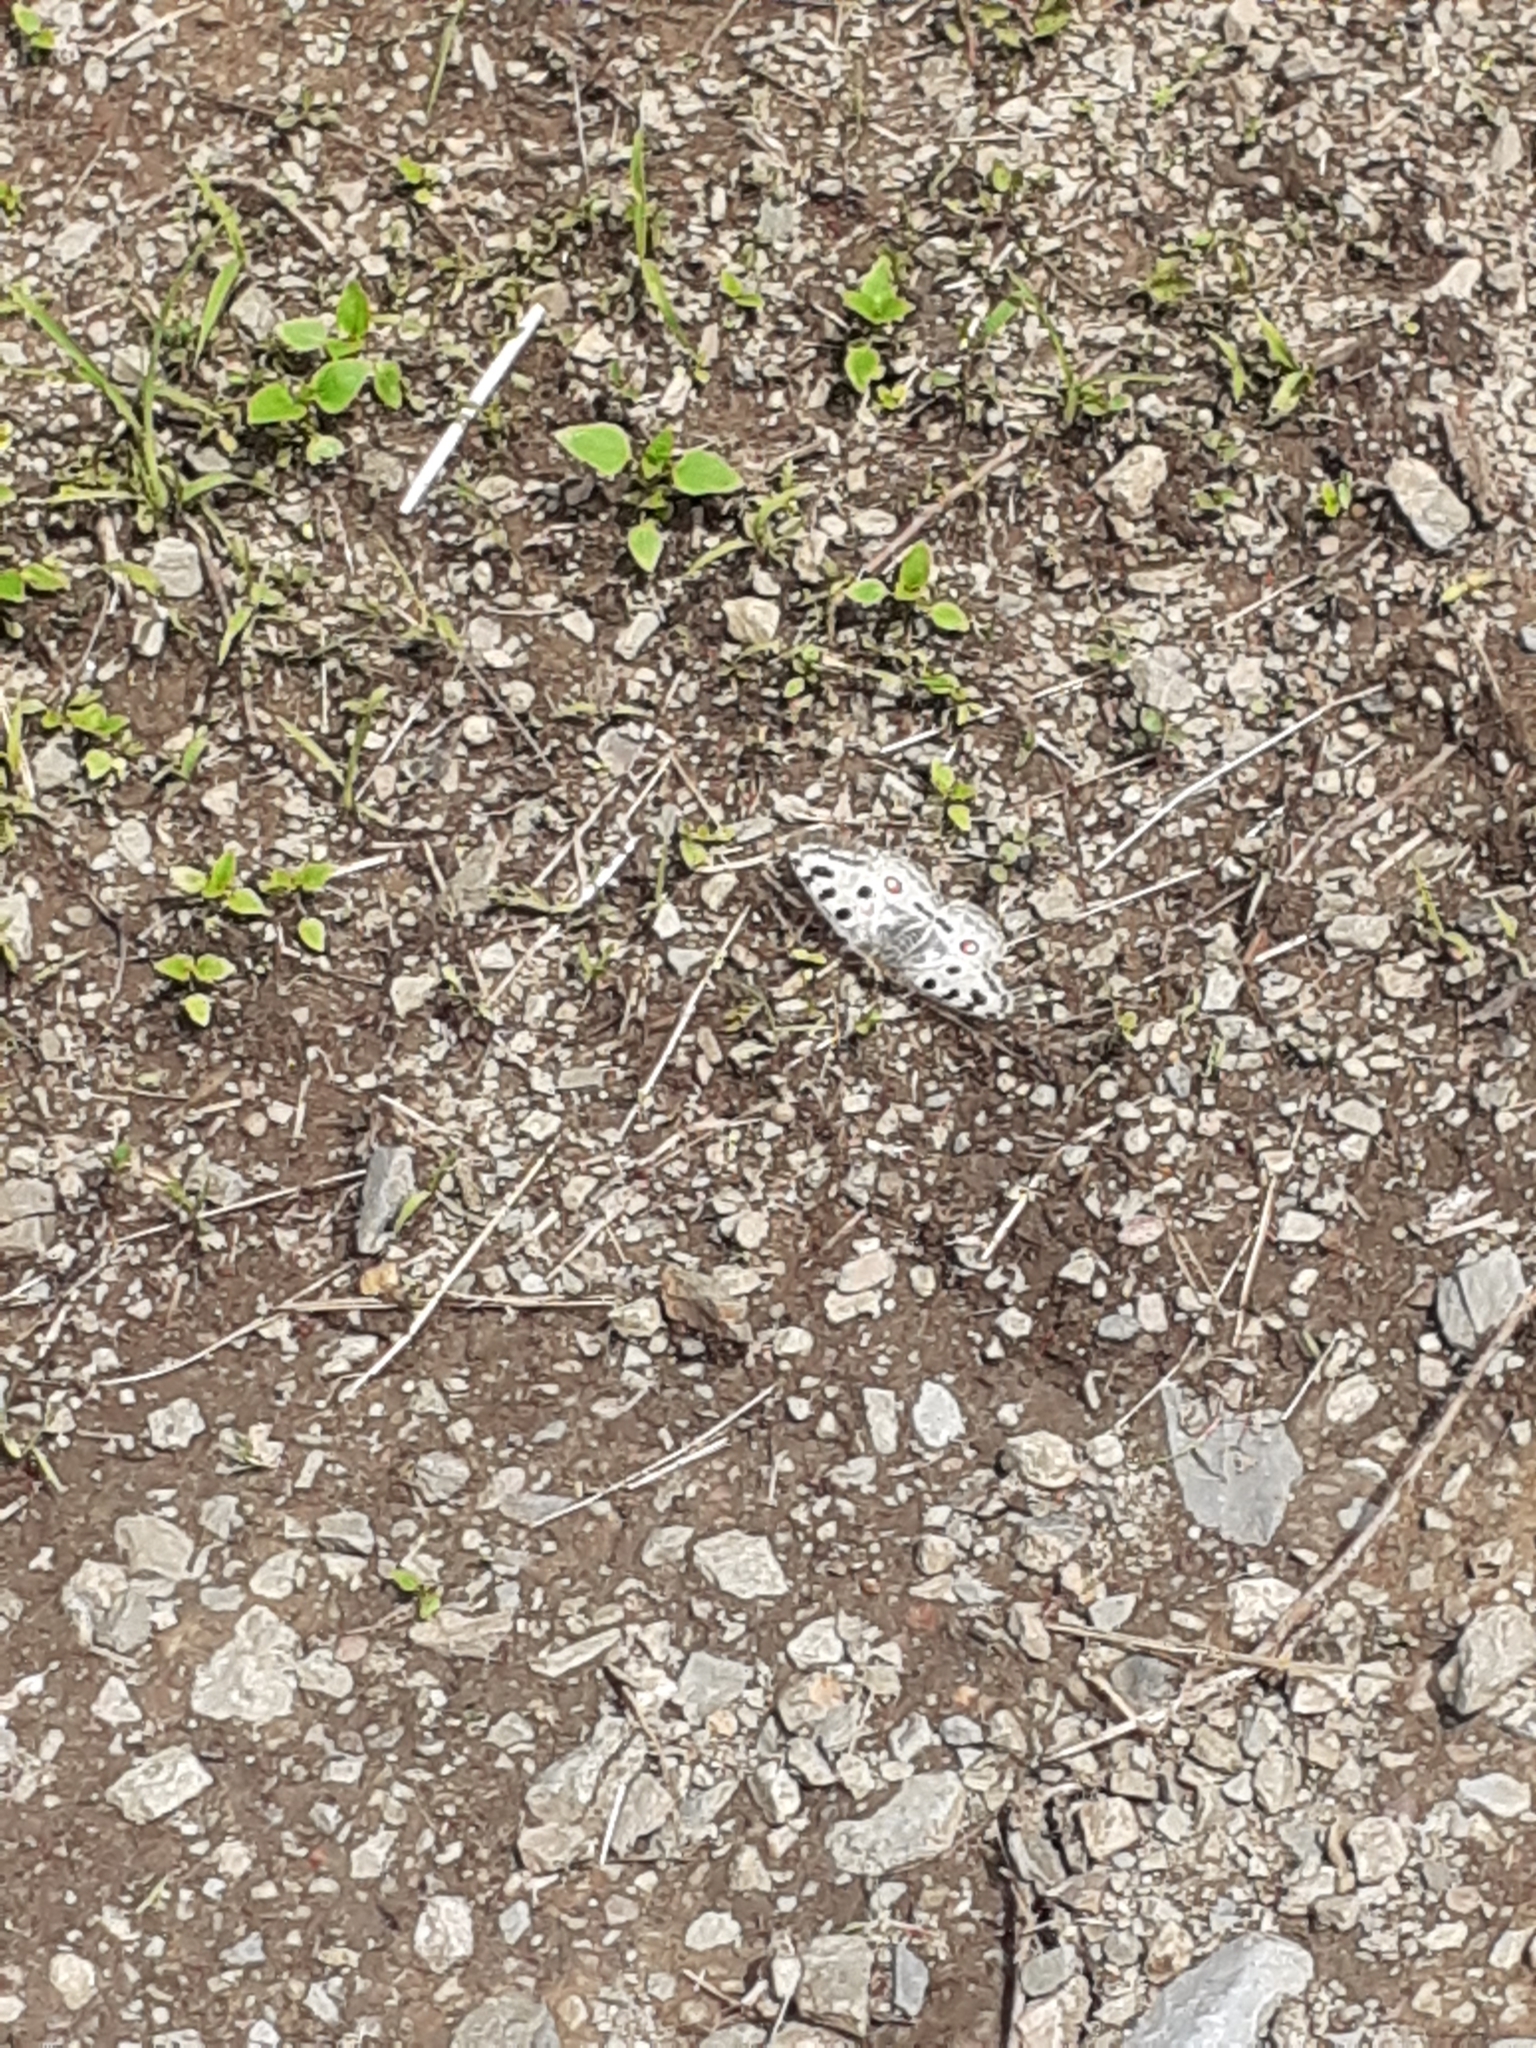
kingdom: Animalia
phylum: Arthropoda
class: Insecta
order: Lepidoptera
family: Papilionidae
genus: Parnassius
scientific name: Parnassius apollo
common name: Apollo
